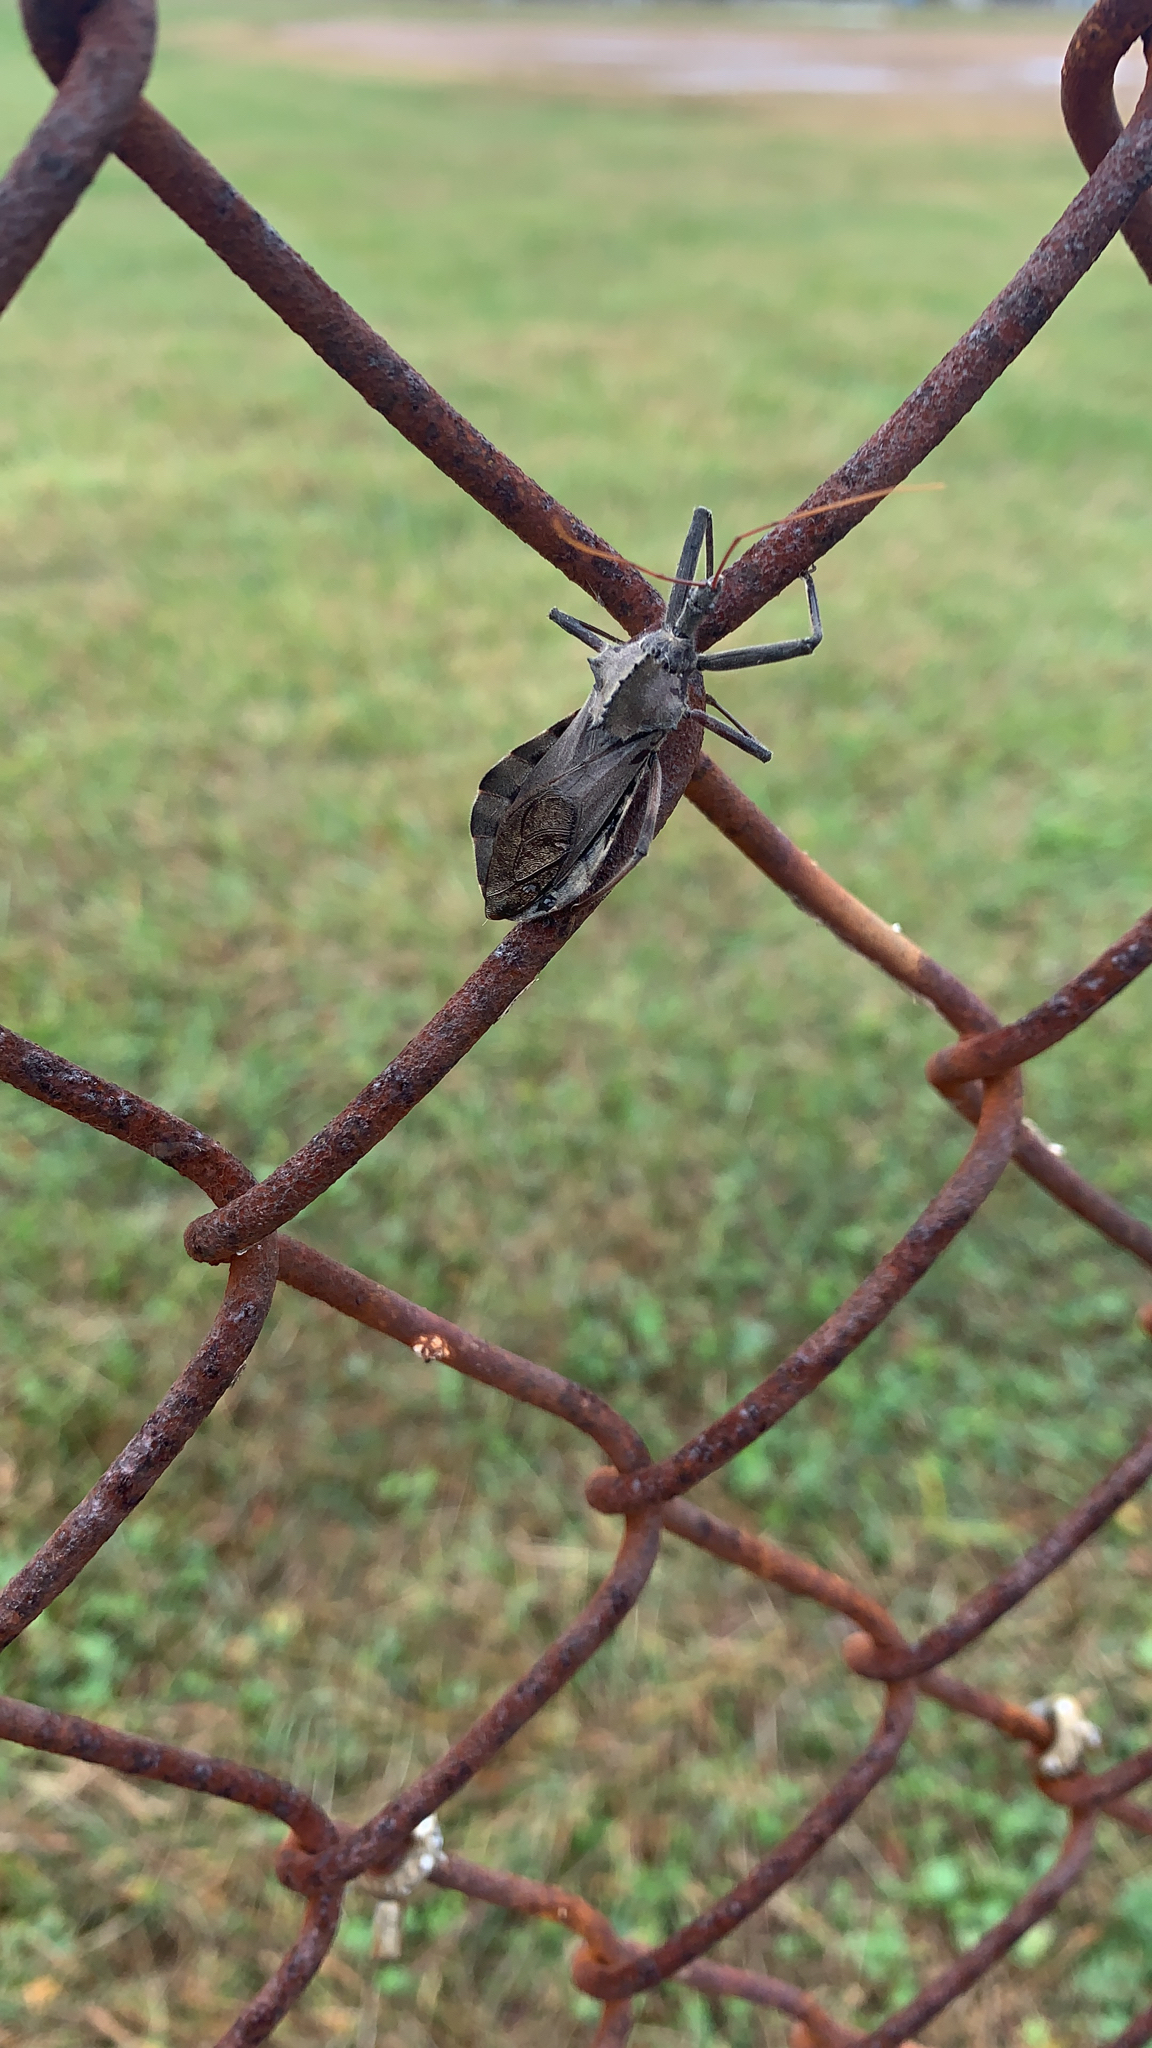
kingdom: Animalia
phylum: Arthropoda
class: Insecta
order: Hemiptera
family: Reduviidae
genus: Arilus
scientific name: Arilus cristatus
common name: North american wheel bug
